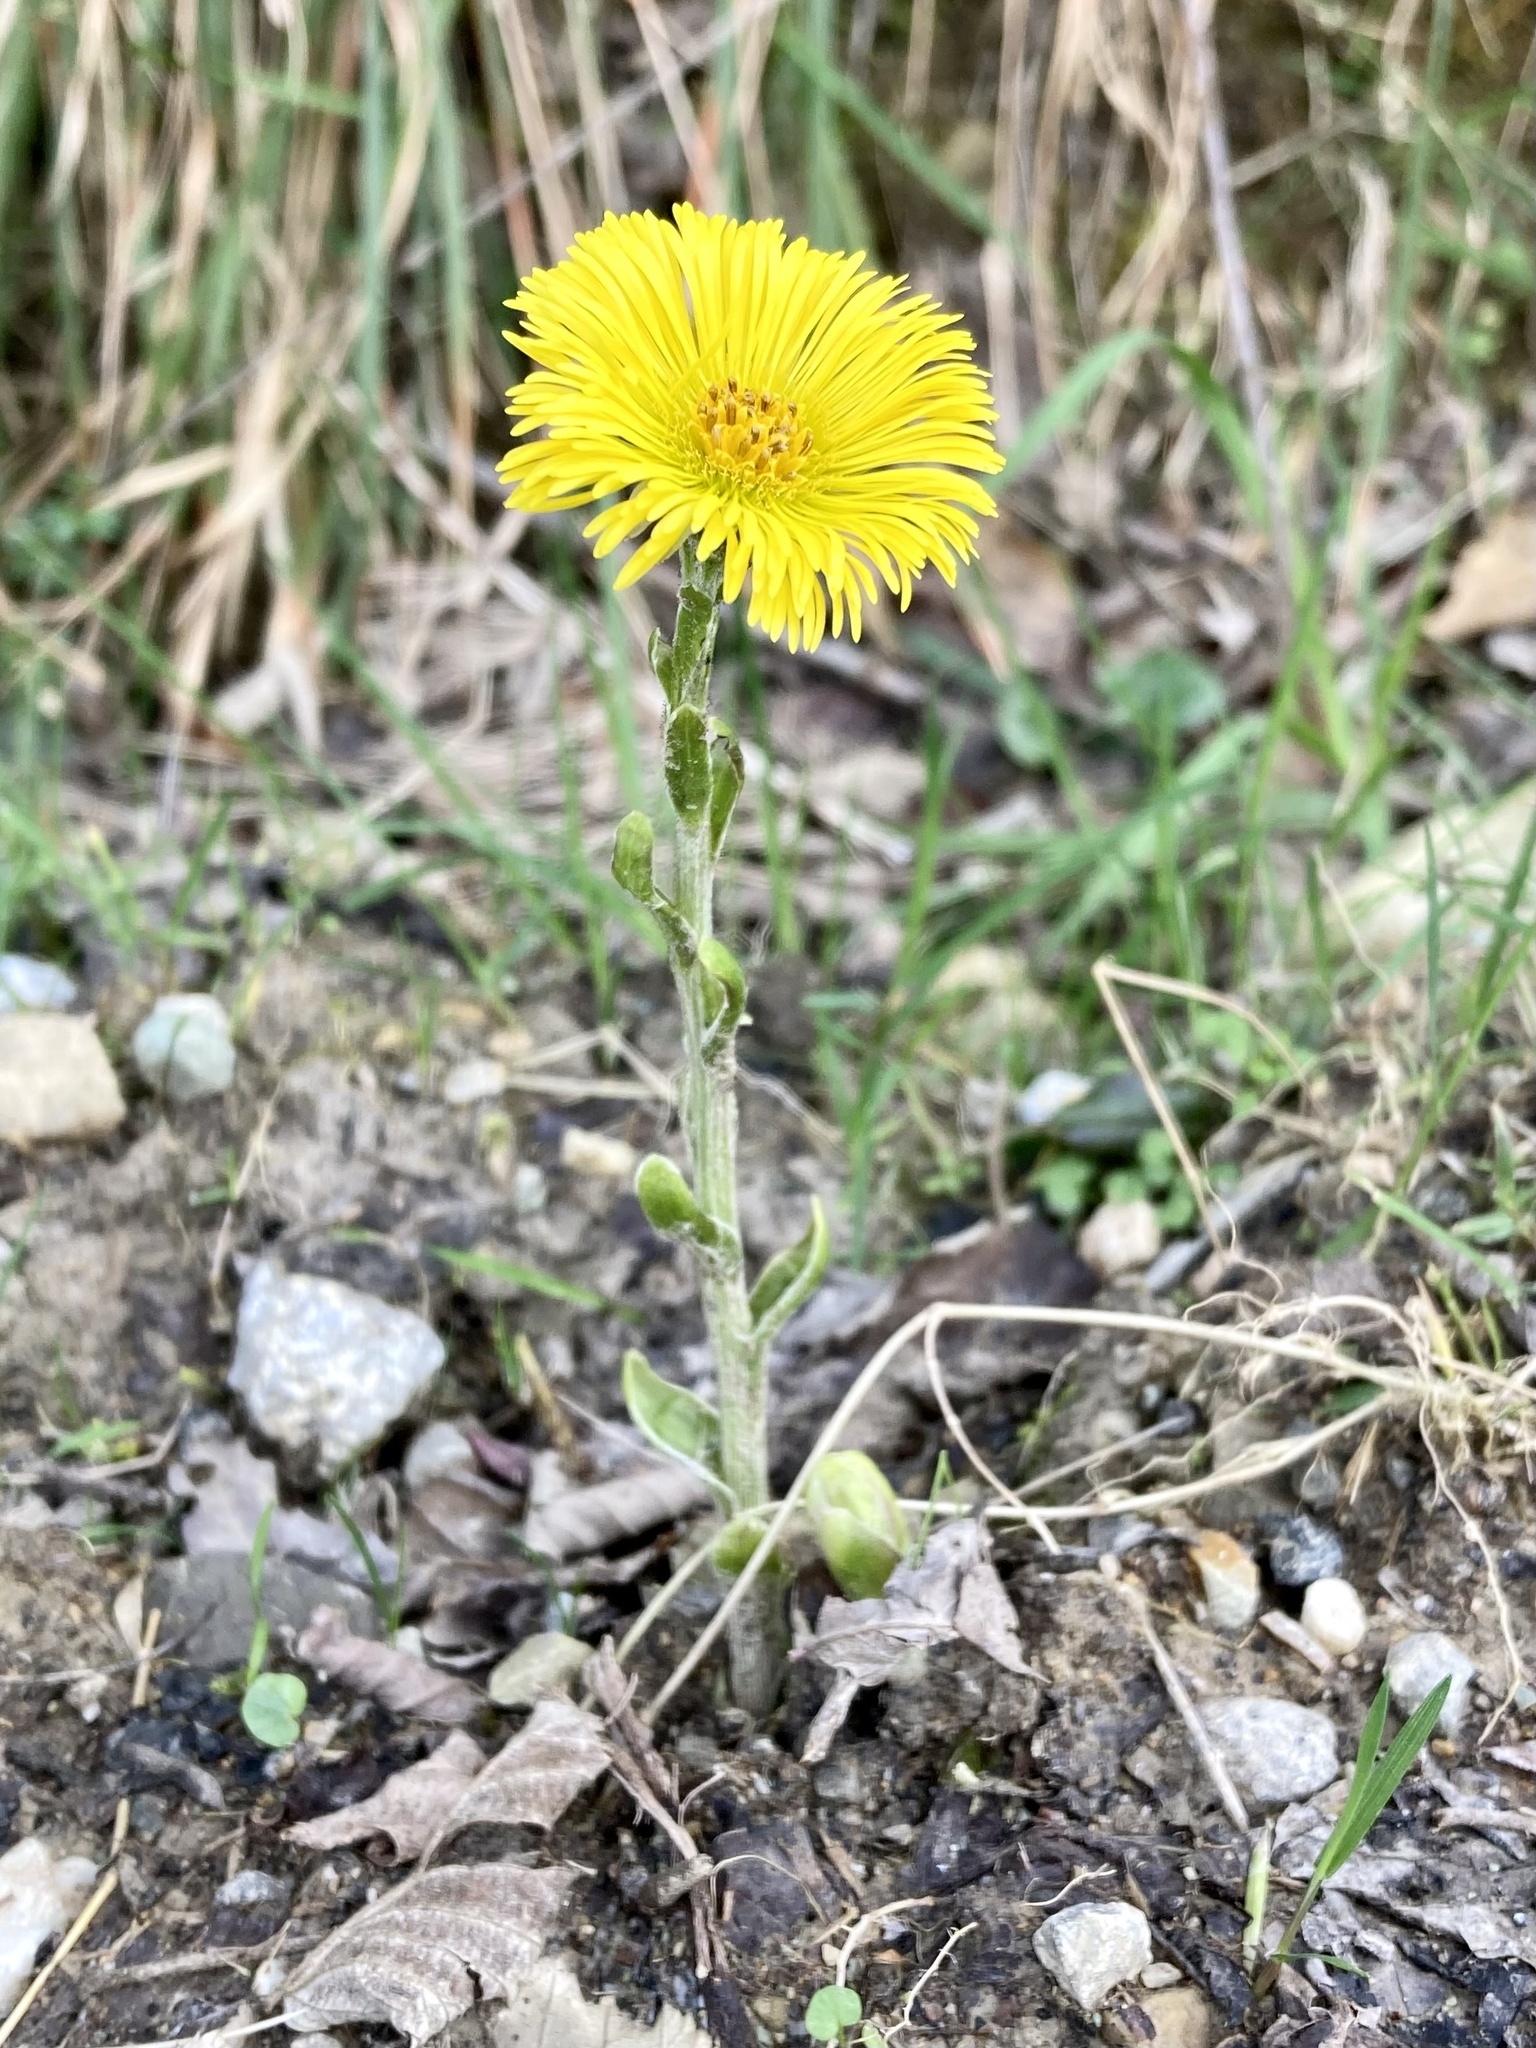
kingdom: Plantae
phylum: Tracheophyta
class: Magnoliopsida
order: Asterales
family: Asteraceae
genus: Tussilago
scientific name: Tussilago farfara
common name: Coltsfoot
